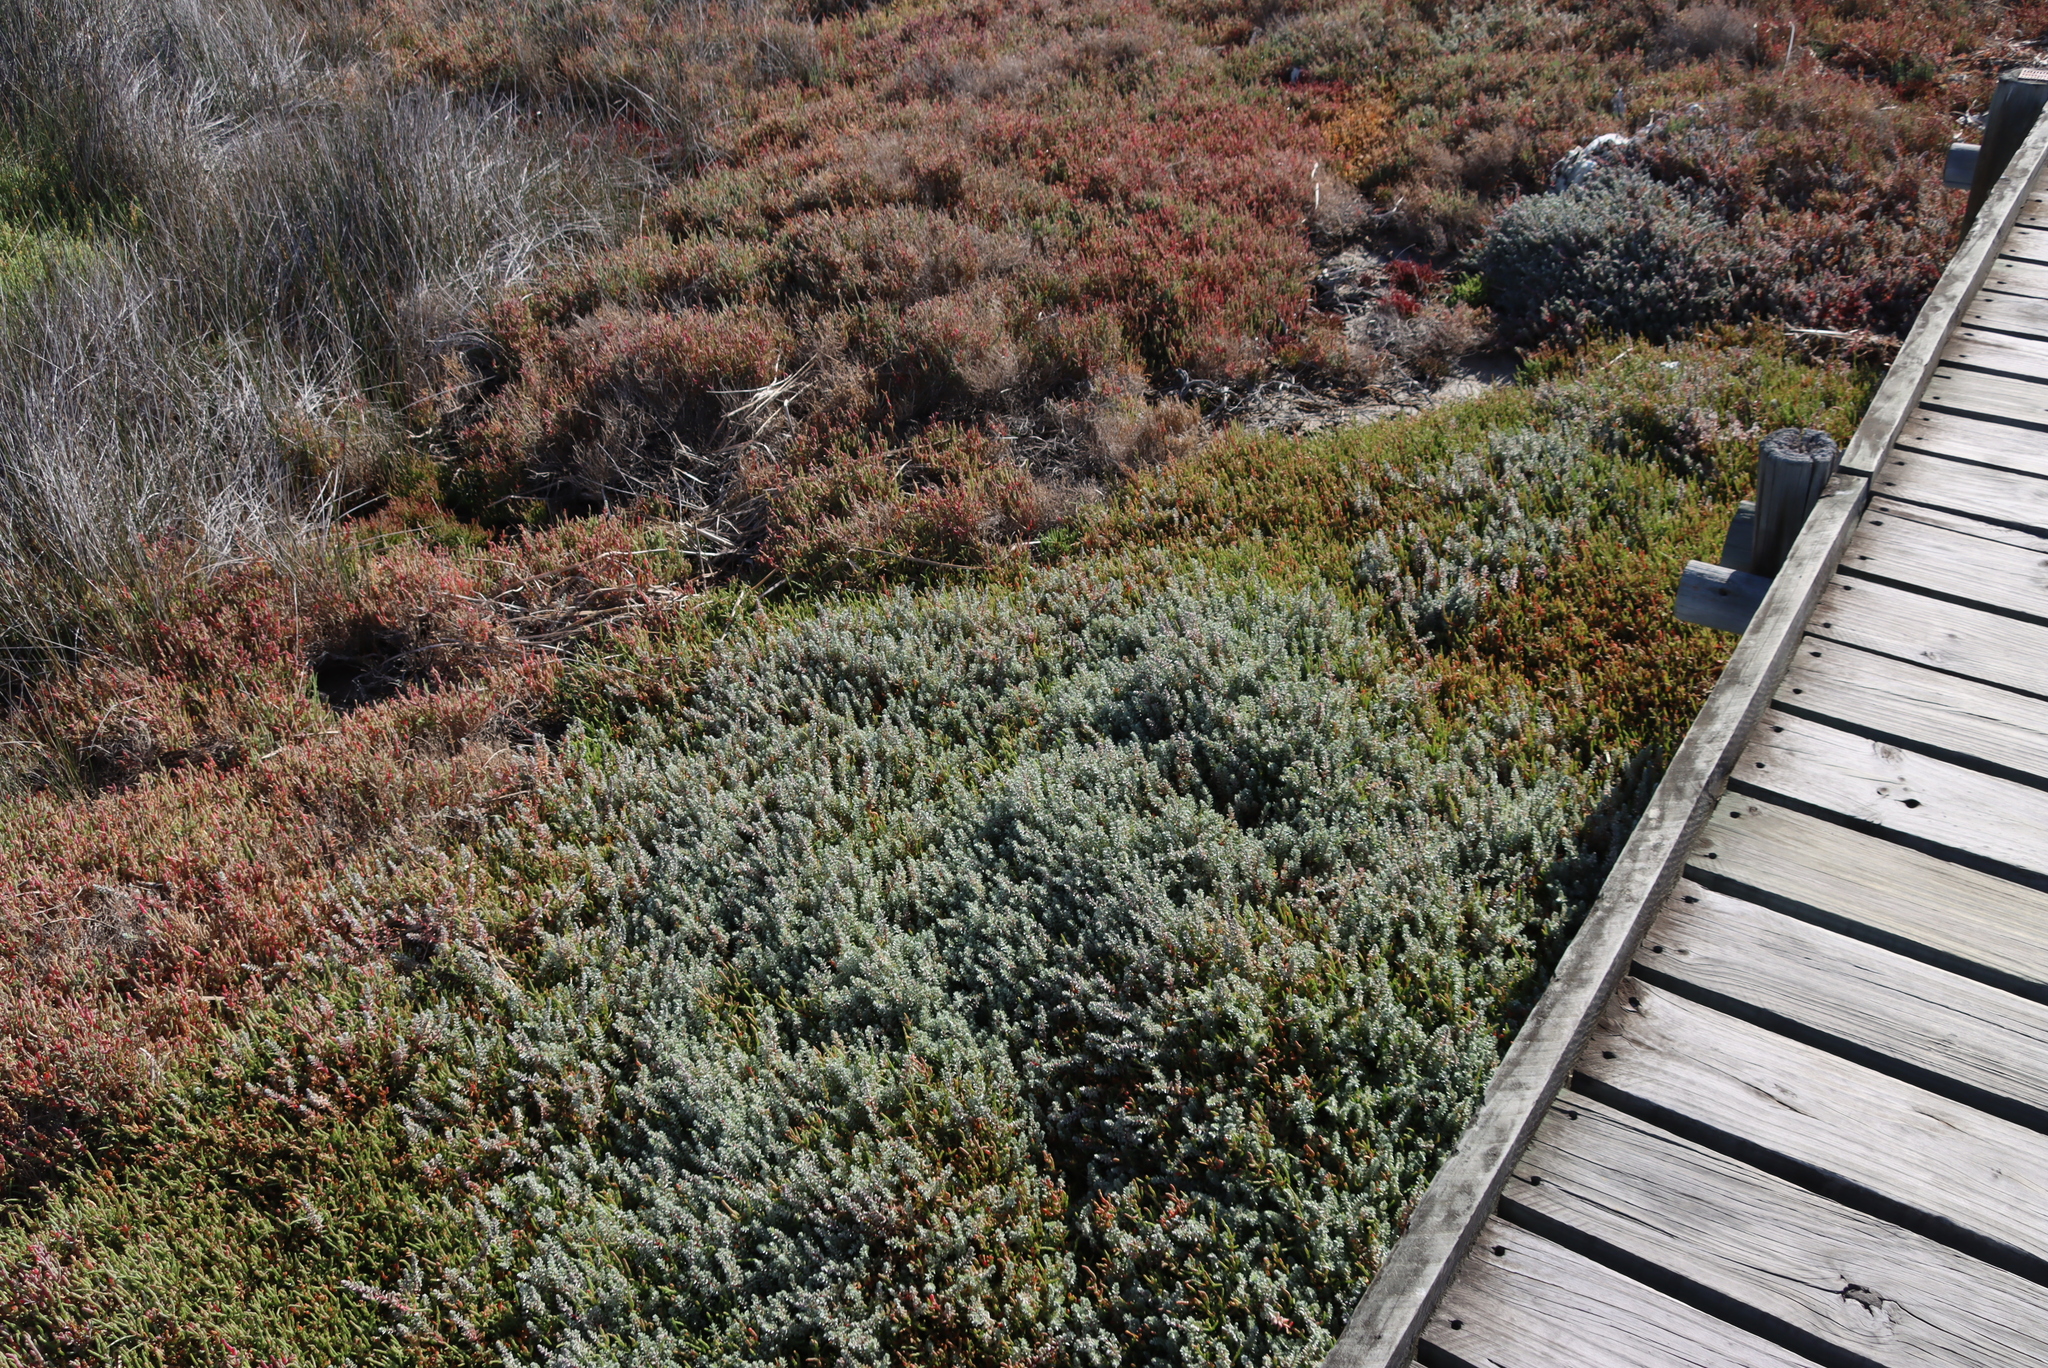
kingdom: Plantae
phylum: Tracheophyta
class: Magnoliopsida
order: Caryophyllales
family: Amaranthaceae
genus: Chenolea
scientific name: Chenolea diffusa
